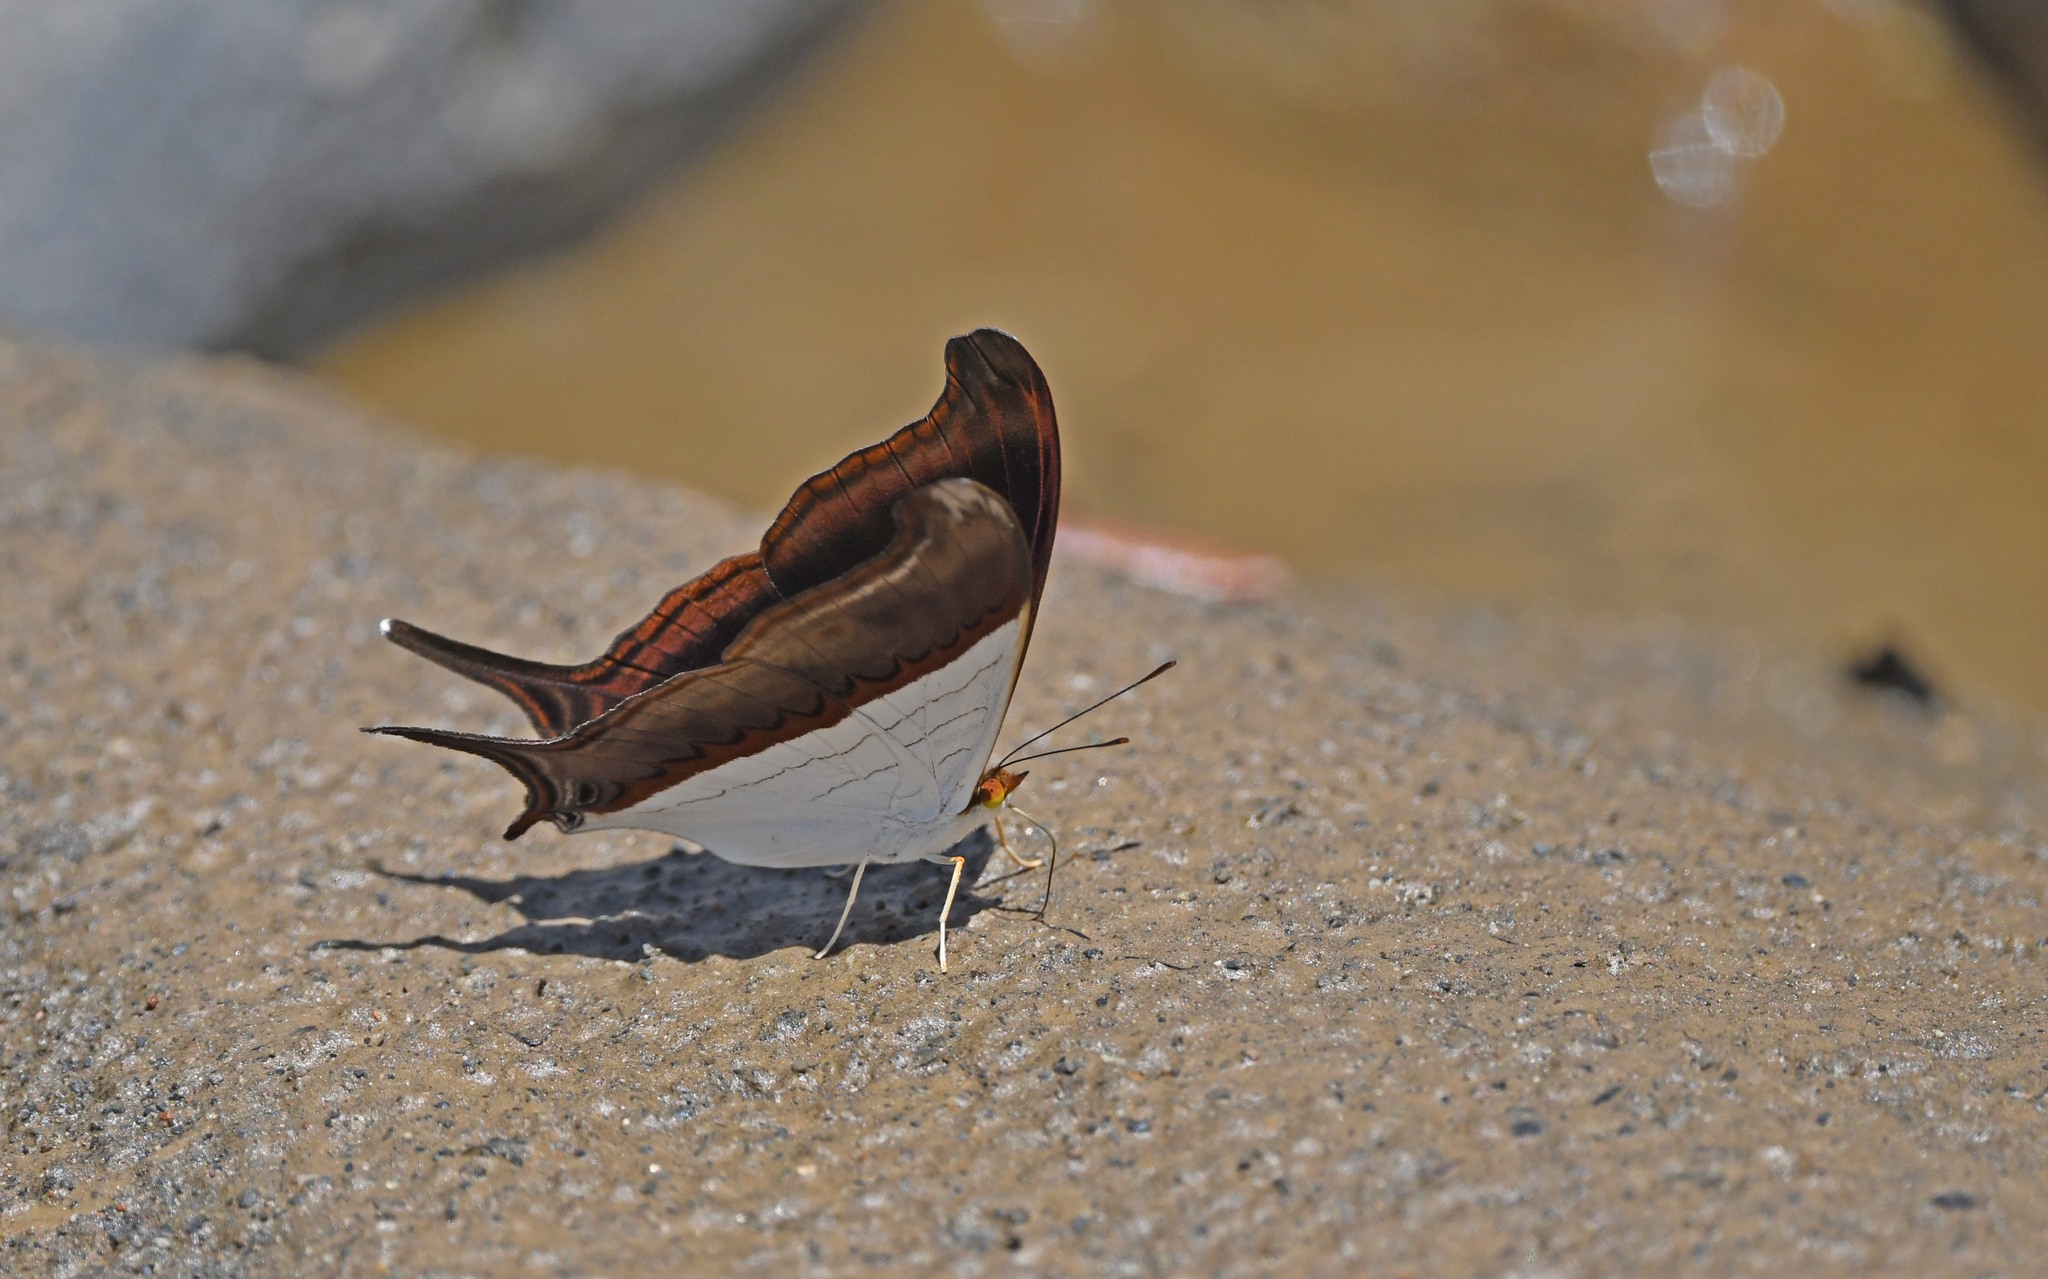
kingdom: Animalia
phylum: Arthropoda
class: Insecta
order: Lepidoptera
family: Nymphalidae
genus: Marpesia
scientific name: Marpesia zerynthia
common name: Waiter daggerwing
